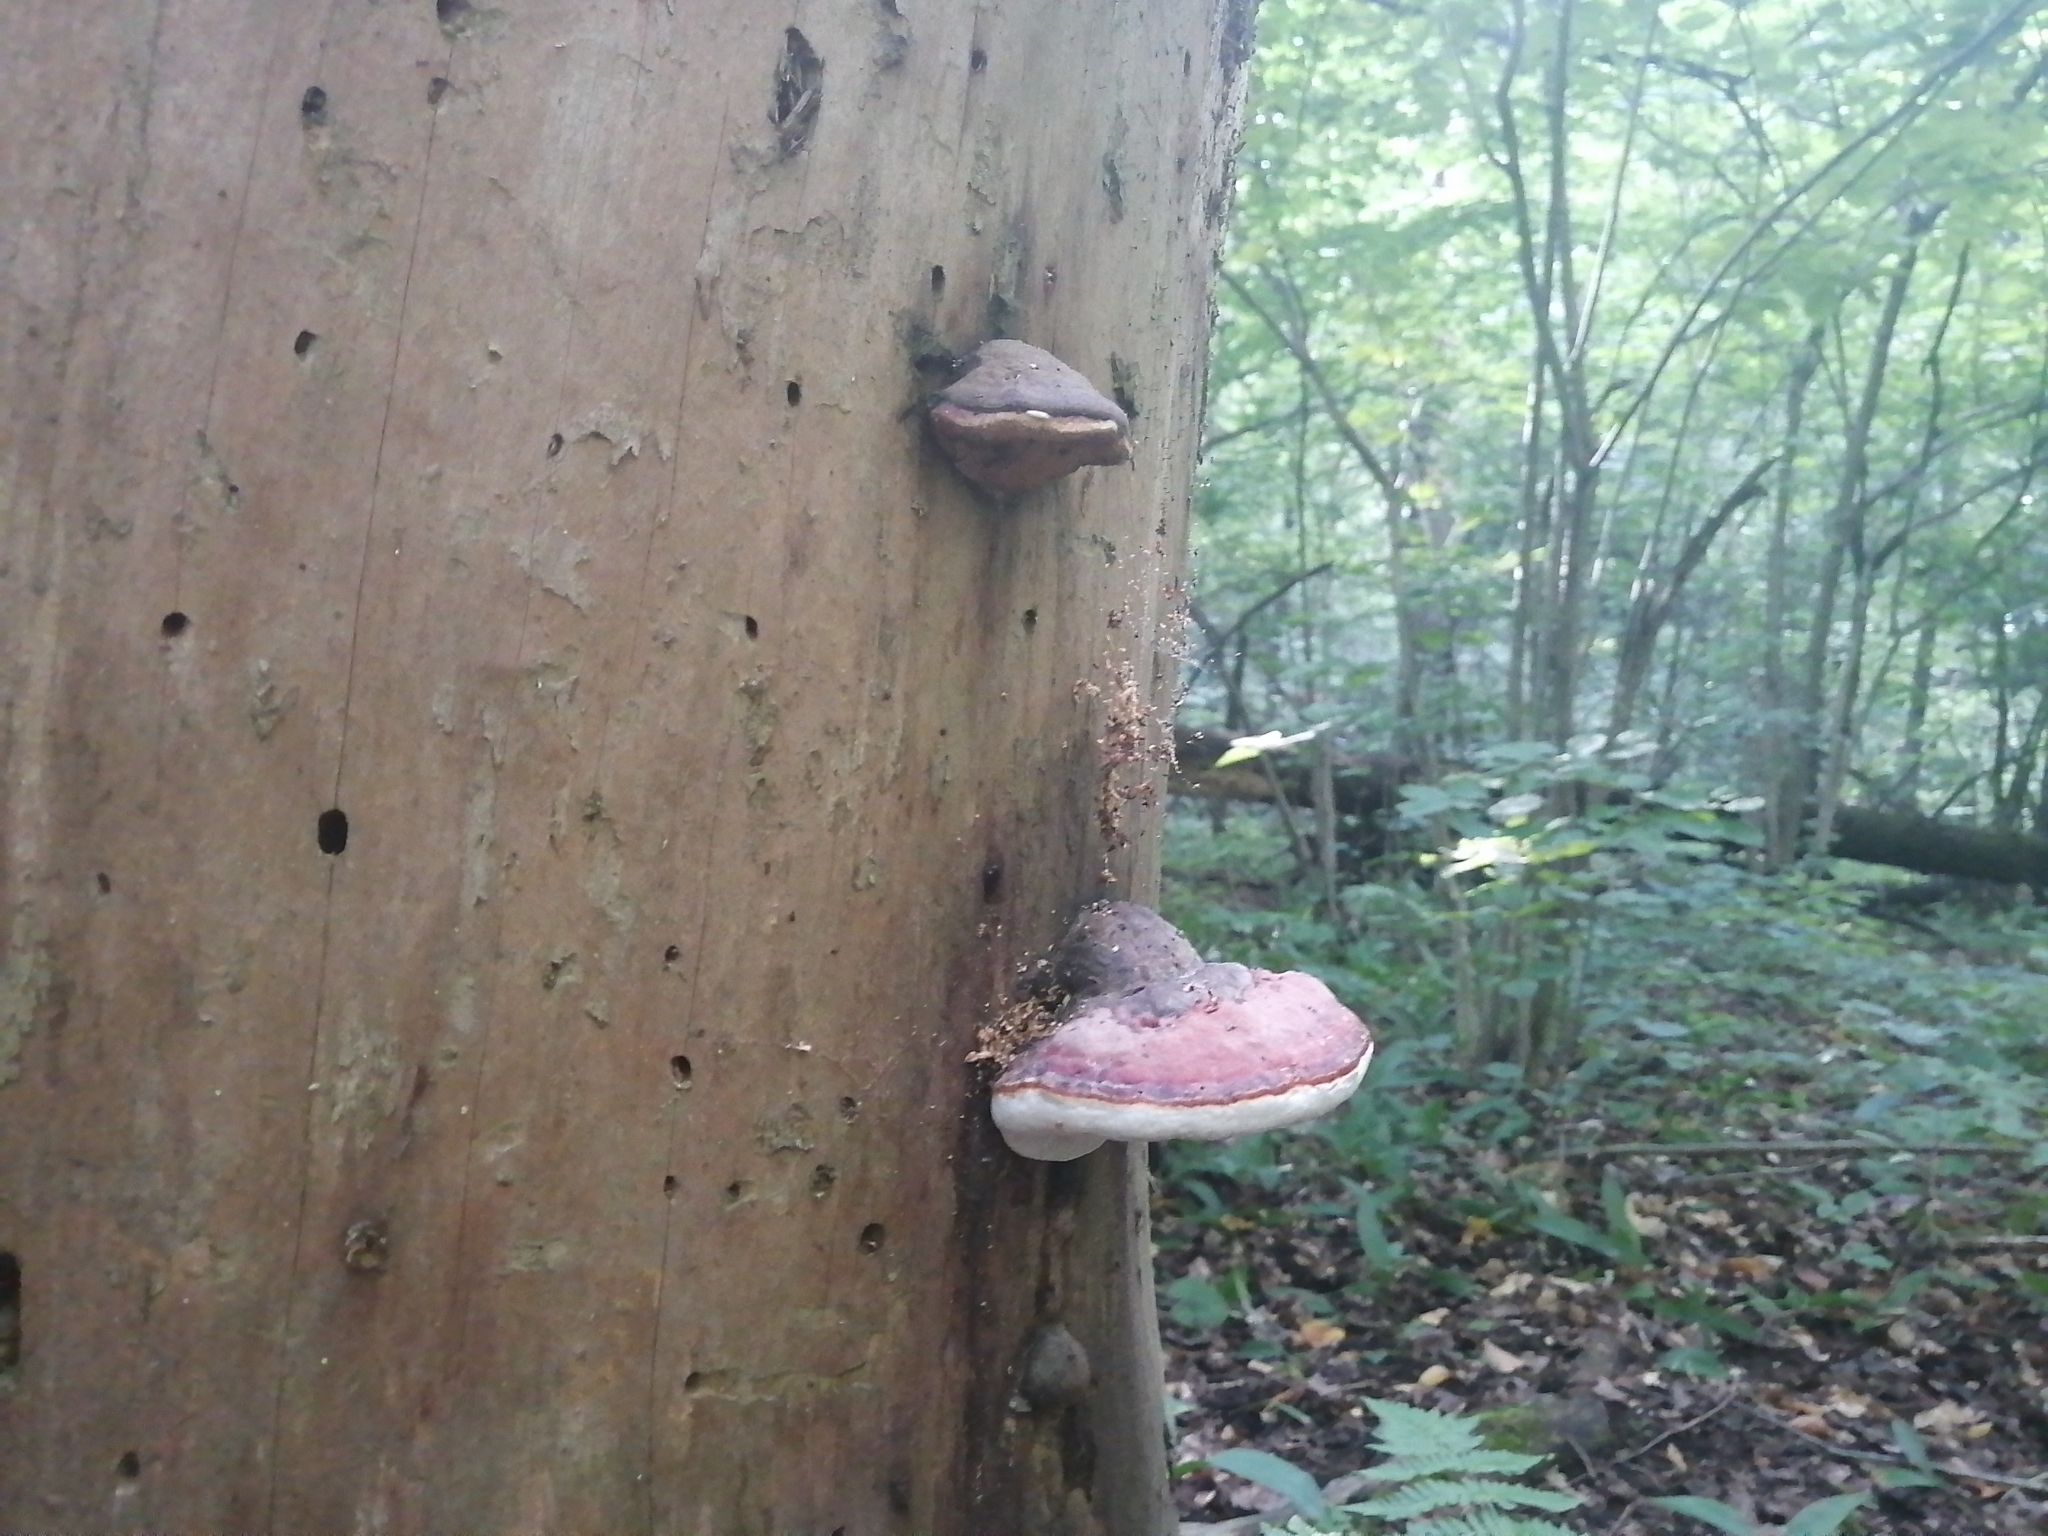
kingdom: Fungi
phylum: Basidiomycota
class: Agaricomycetes
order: Polyporales
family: Fomitopsidaceae
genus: Fomitopsis
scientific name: Fomitopsis pinicola
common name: Red-belted bracket
